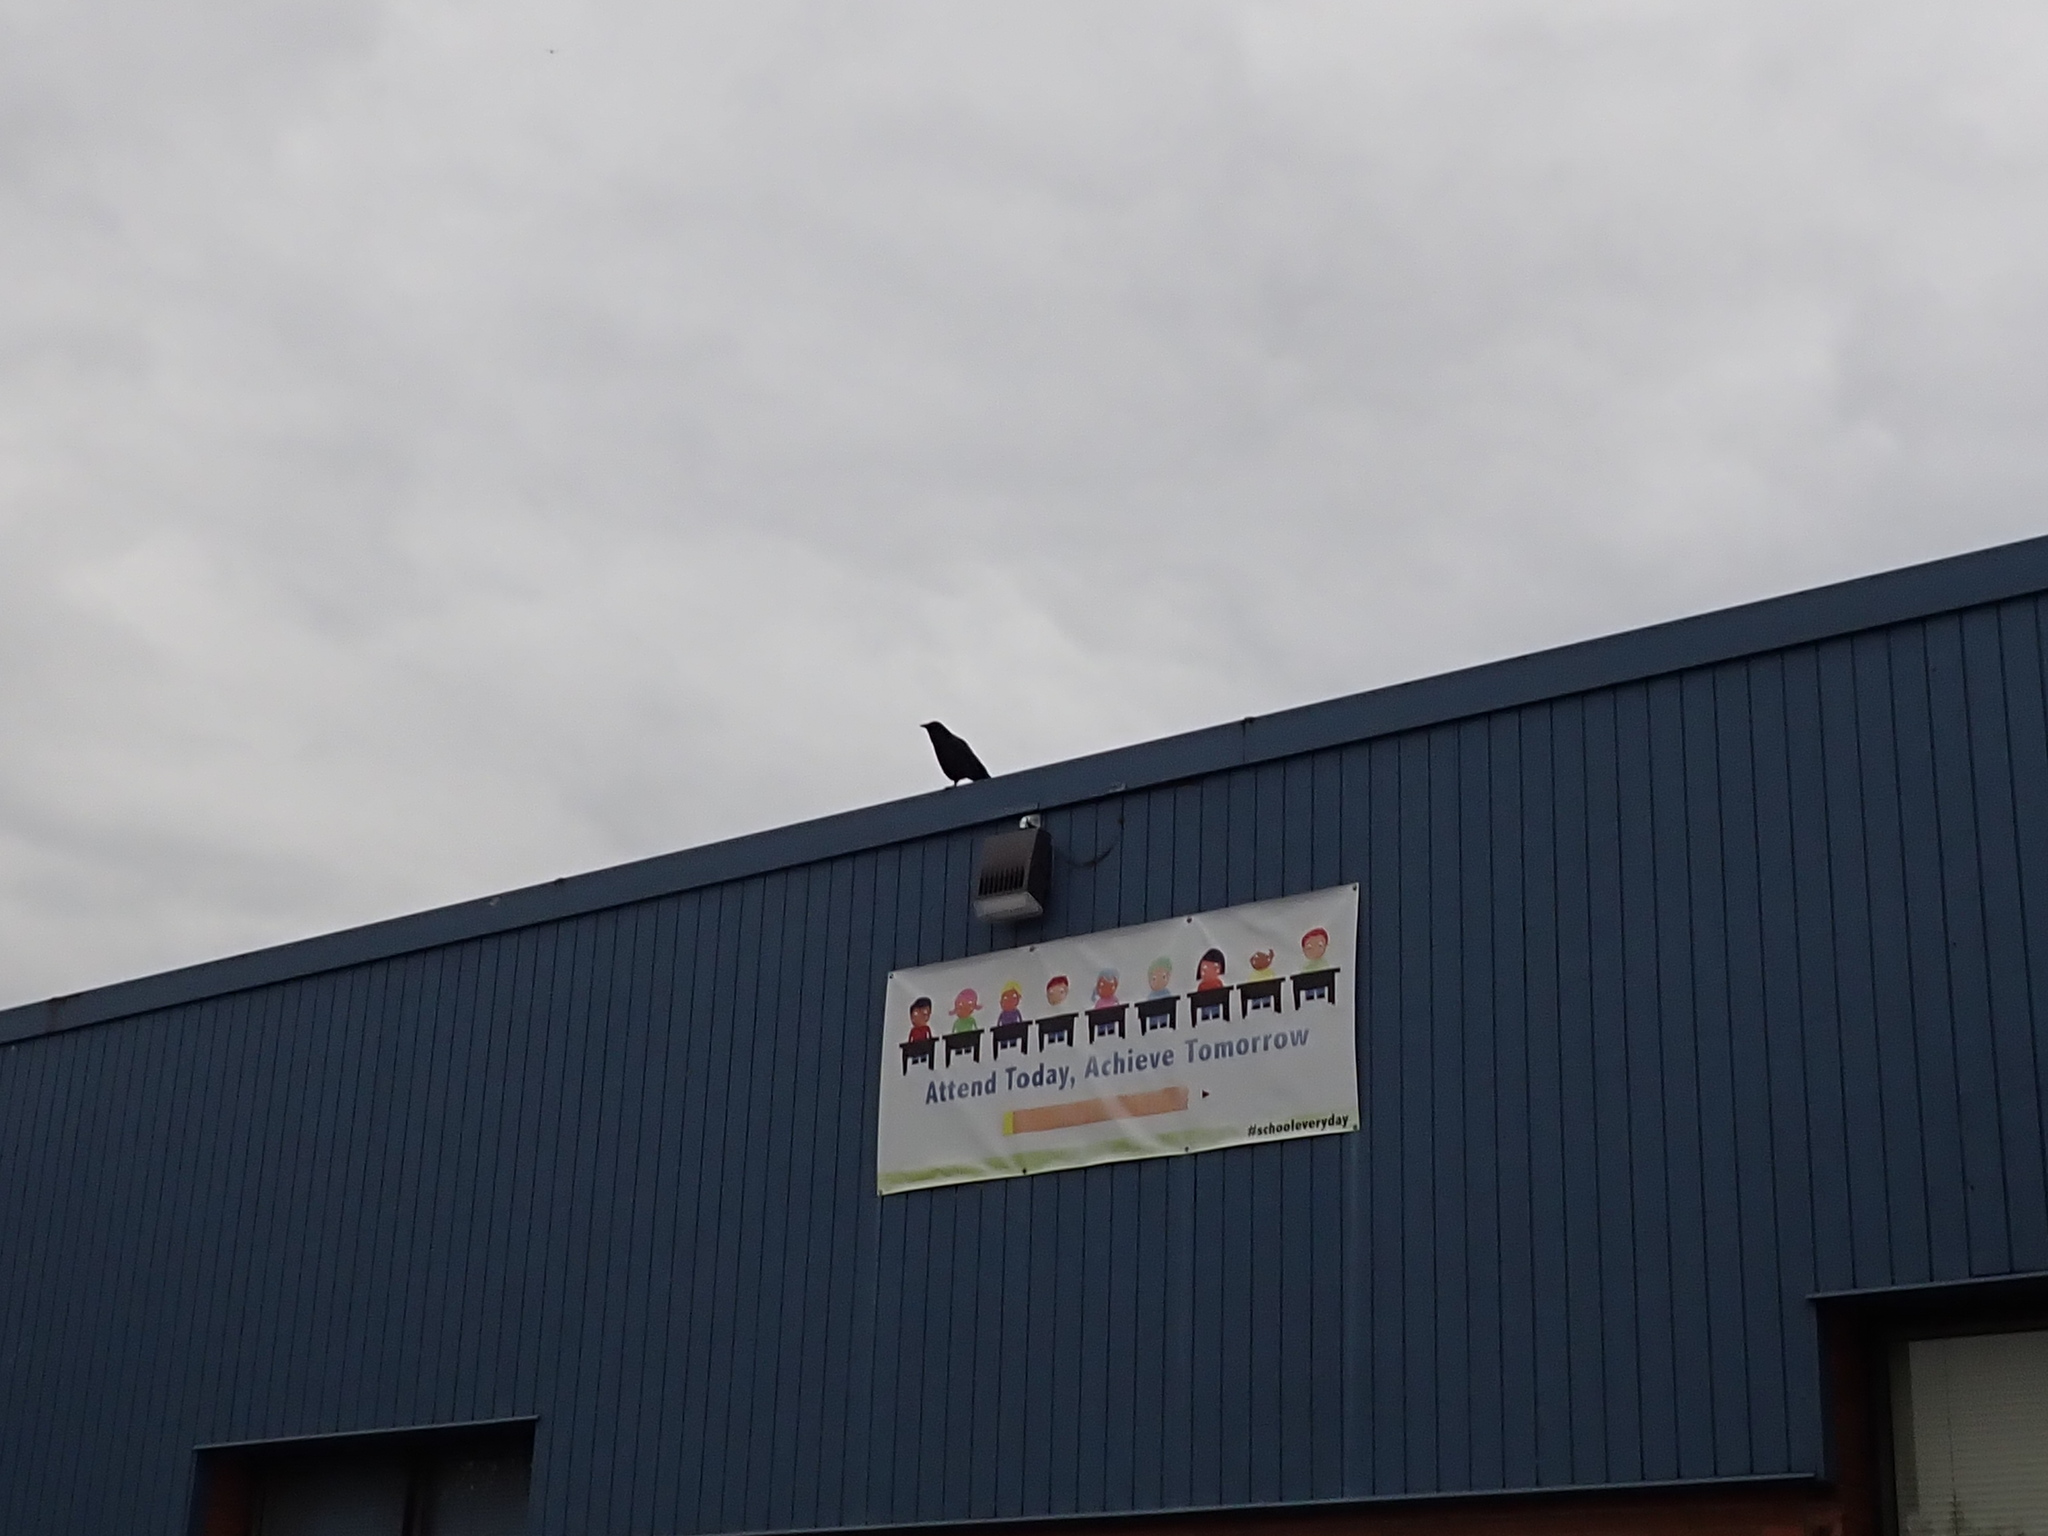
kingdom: Animalia
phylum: Chordata
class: Aves
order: Passeriformes
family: Corvidae
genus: Corvus
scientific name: Corvus brachyrhynchos
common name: American crow
